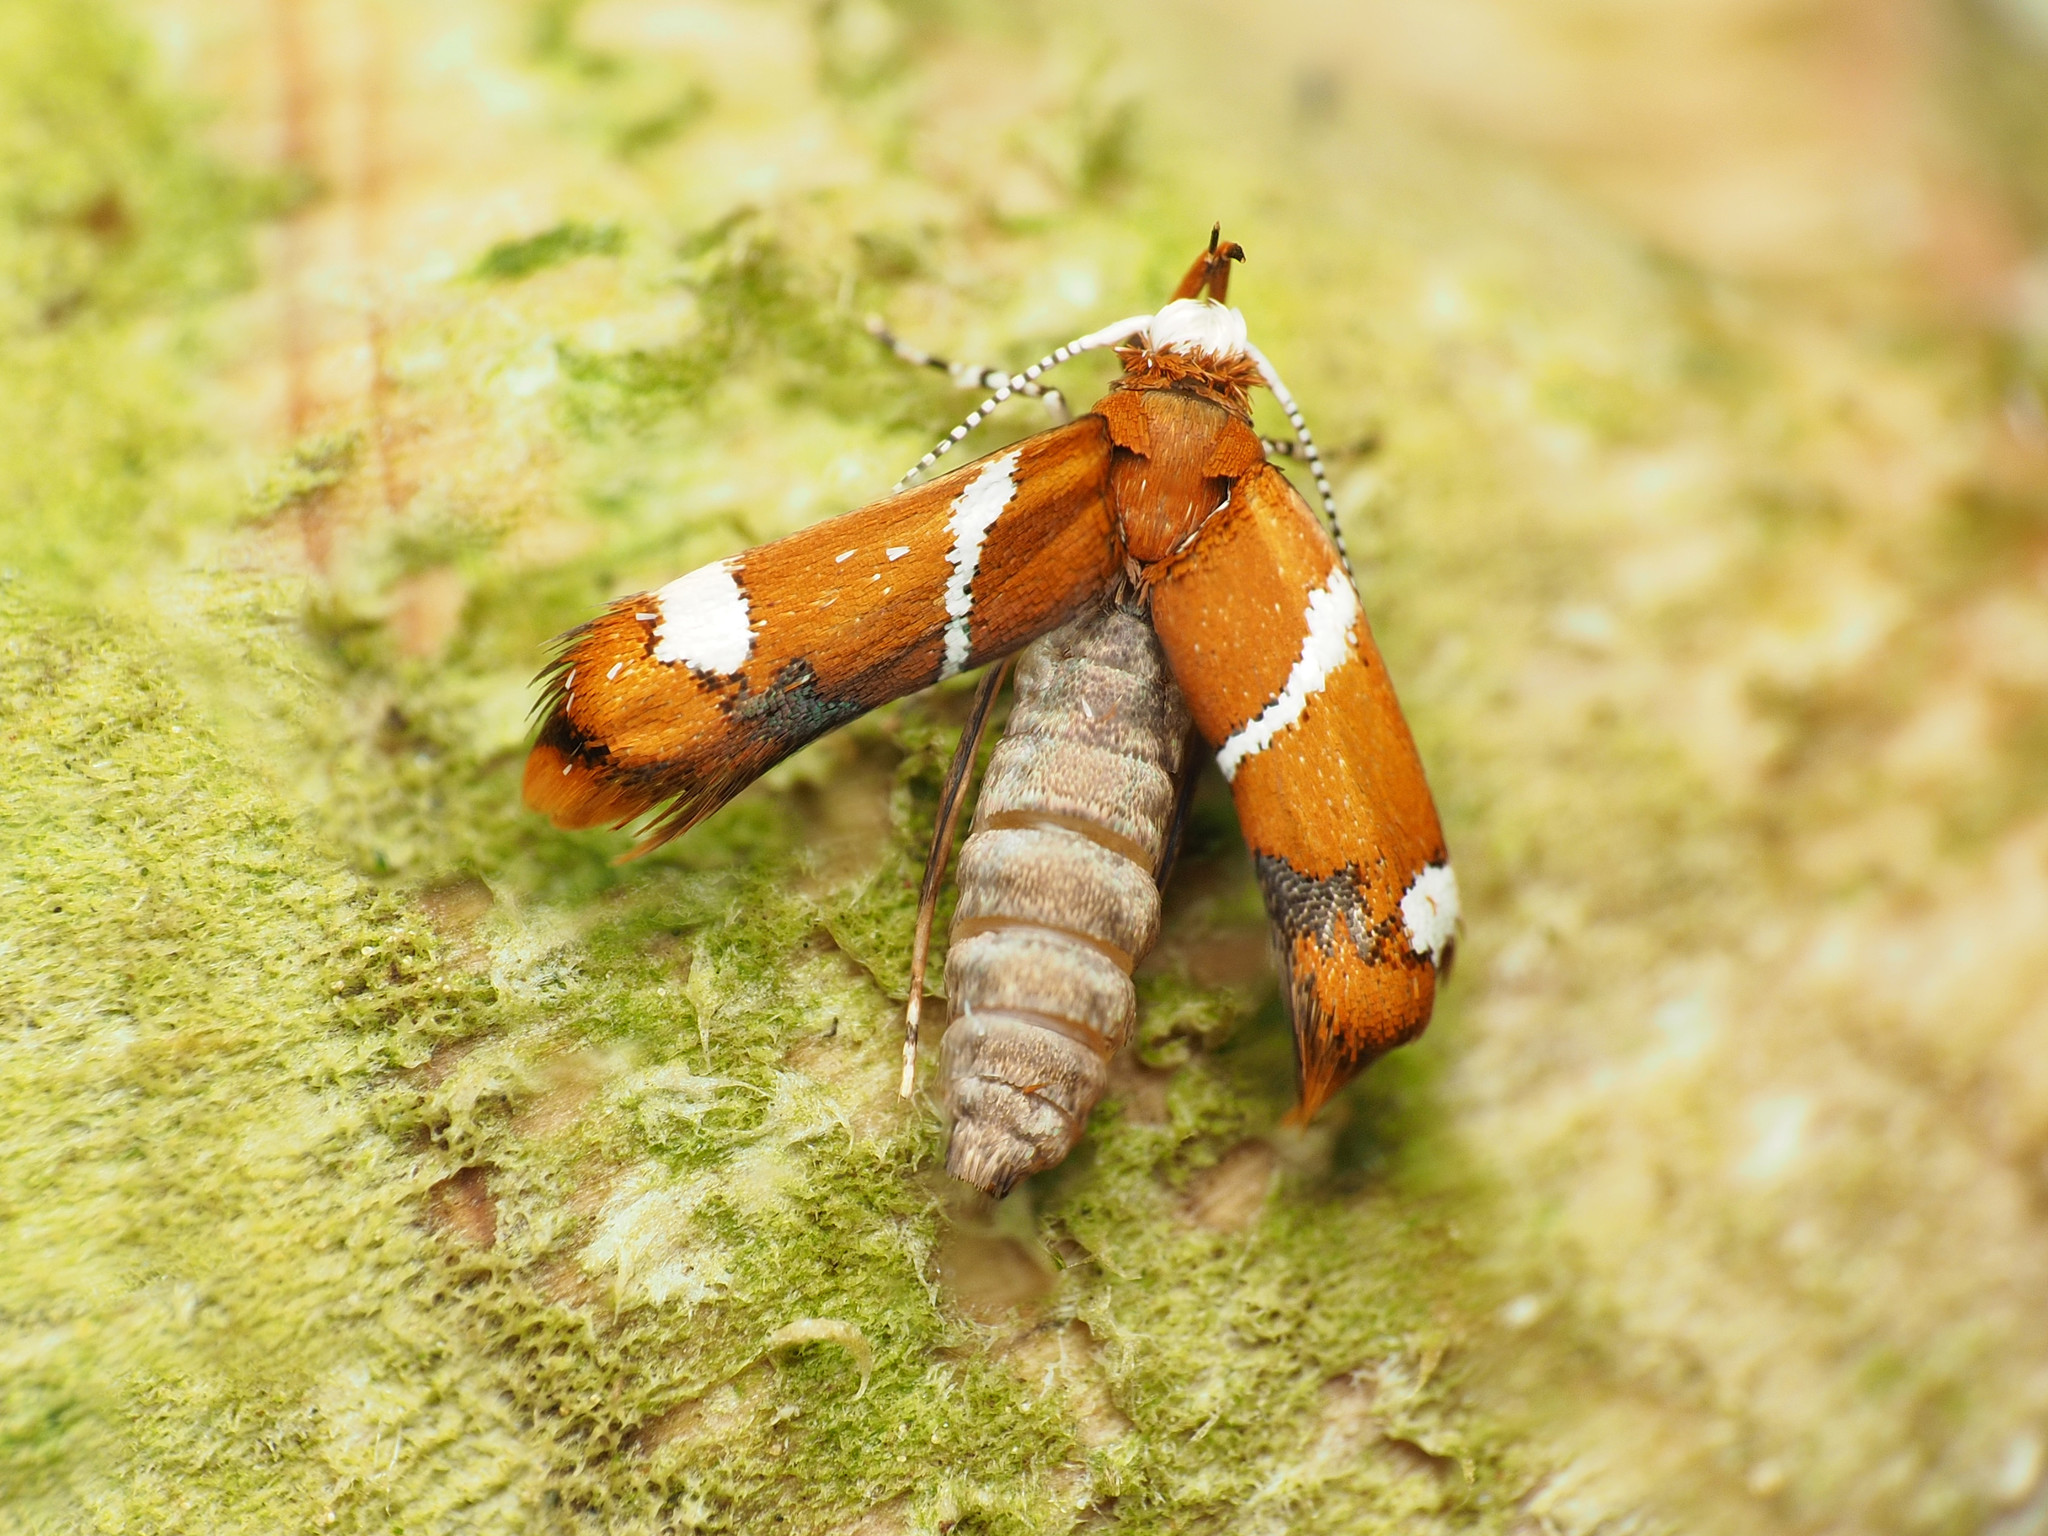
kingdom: Animalia
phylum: Arthropoda
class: Insecta
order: Lepidoptera
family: Oecophoridae
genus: Promalactis
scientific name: Promalactis suzukiella
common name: Moth
